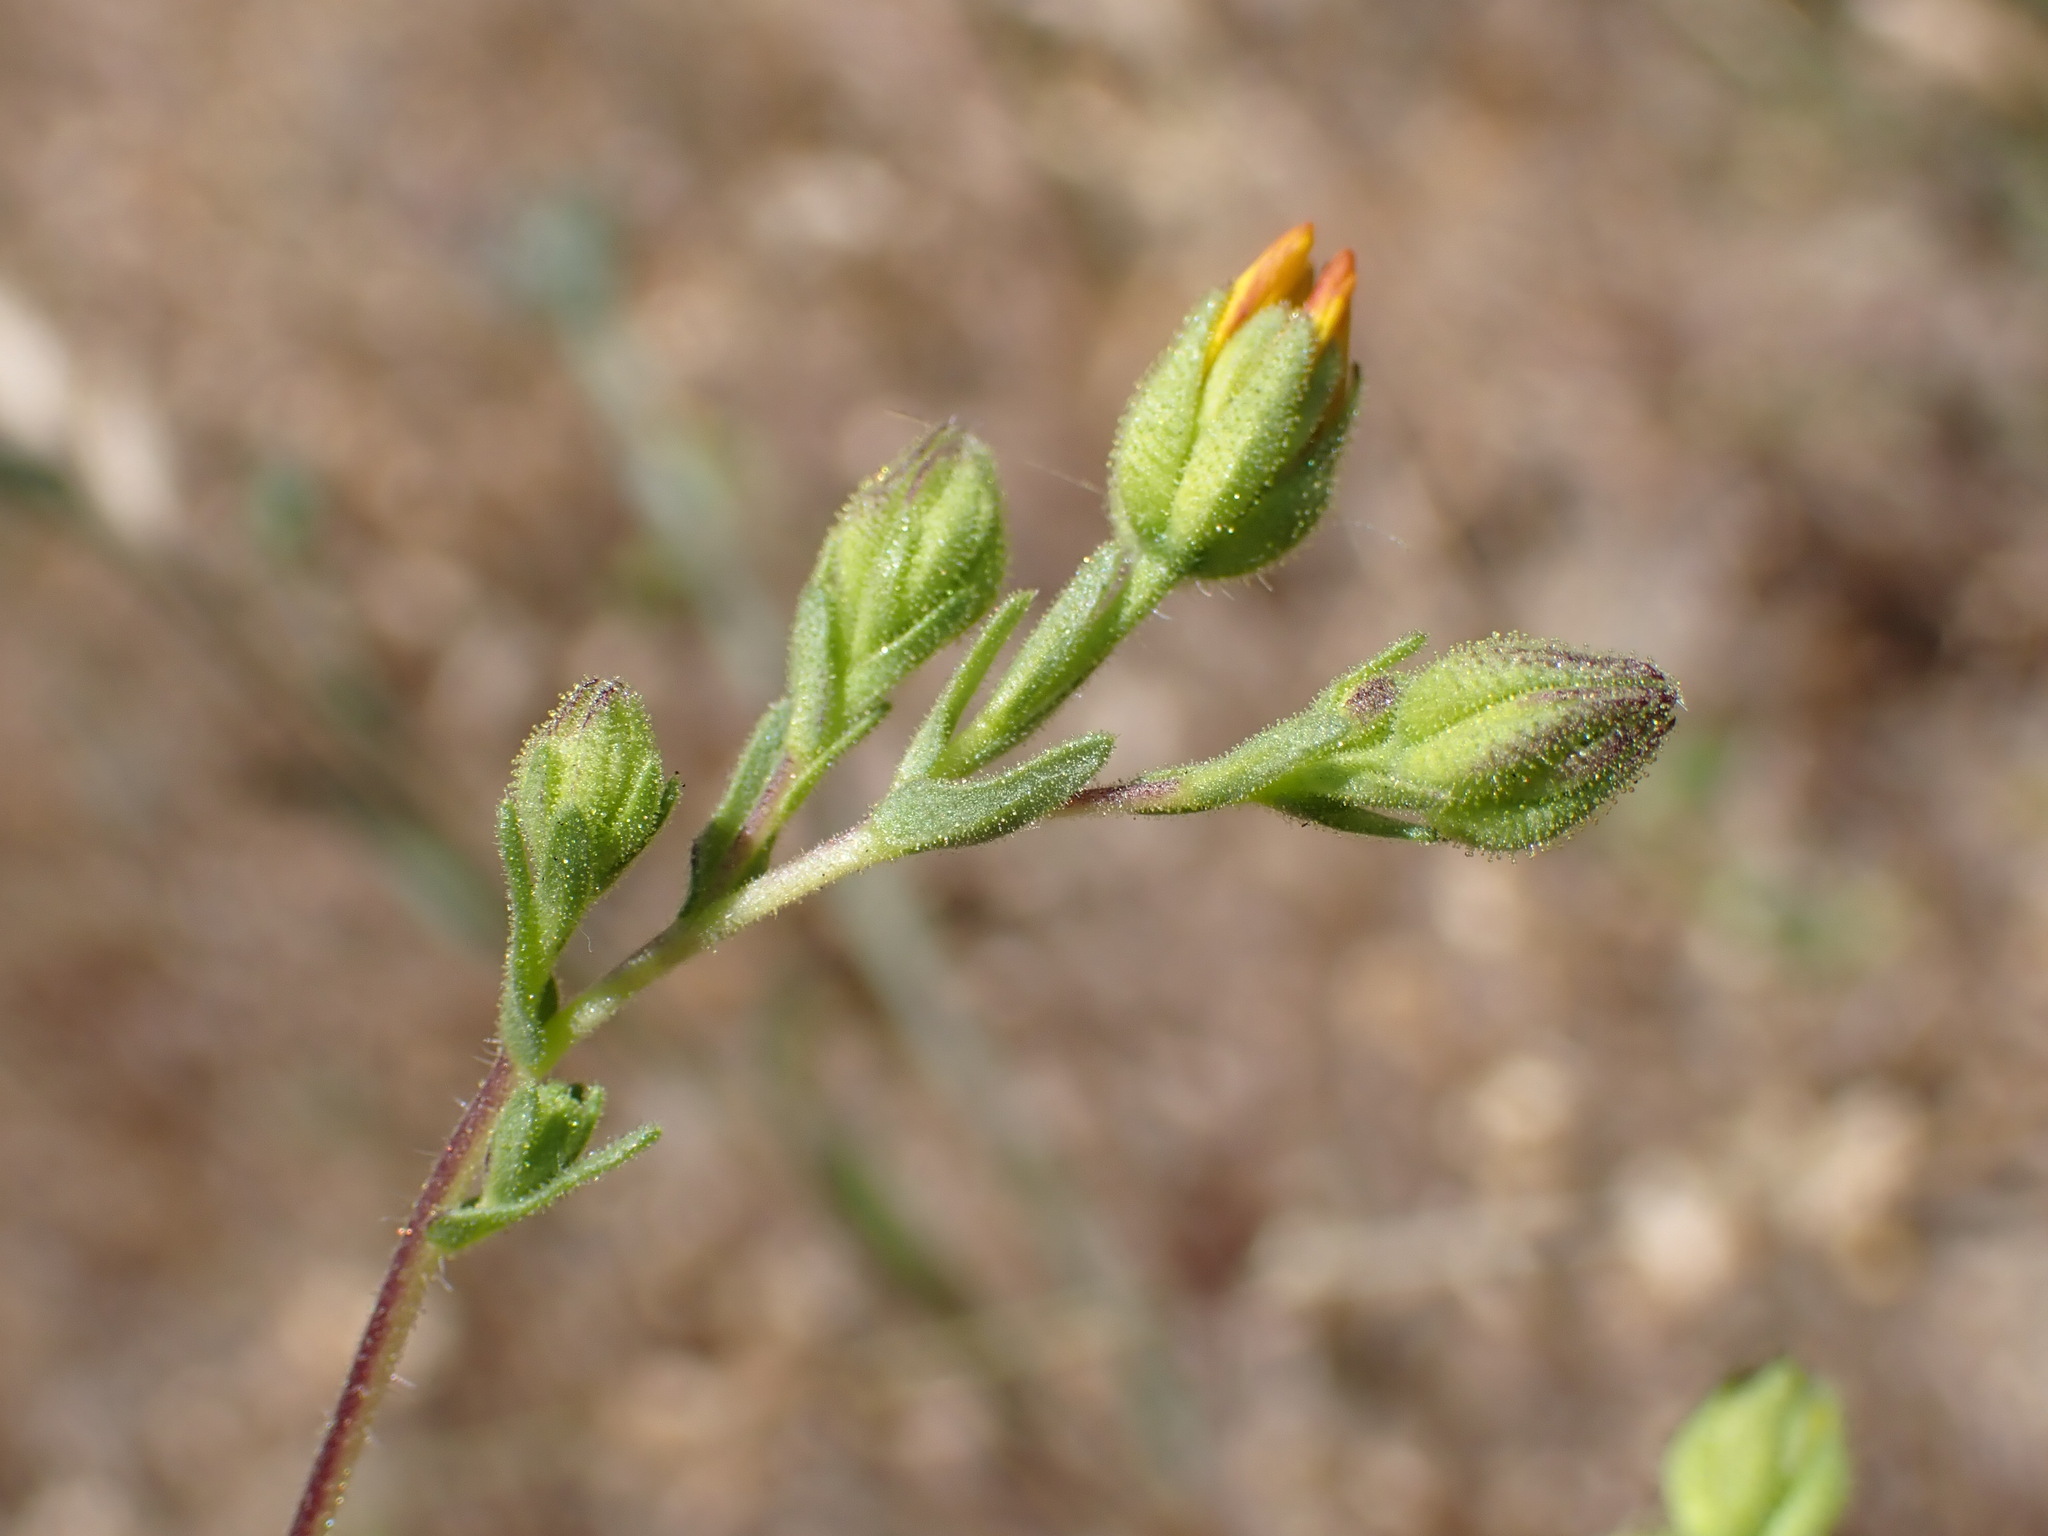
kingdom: Plantae
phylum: Tracheophyta
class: Magnoliopsida
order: Asterales
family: Asteraceae
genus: Deinandra
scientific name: Deinandra kelloggii
